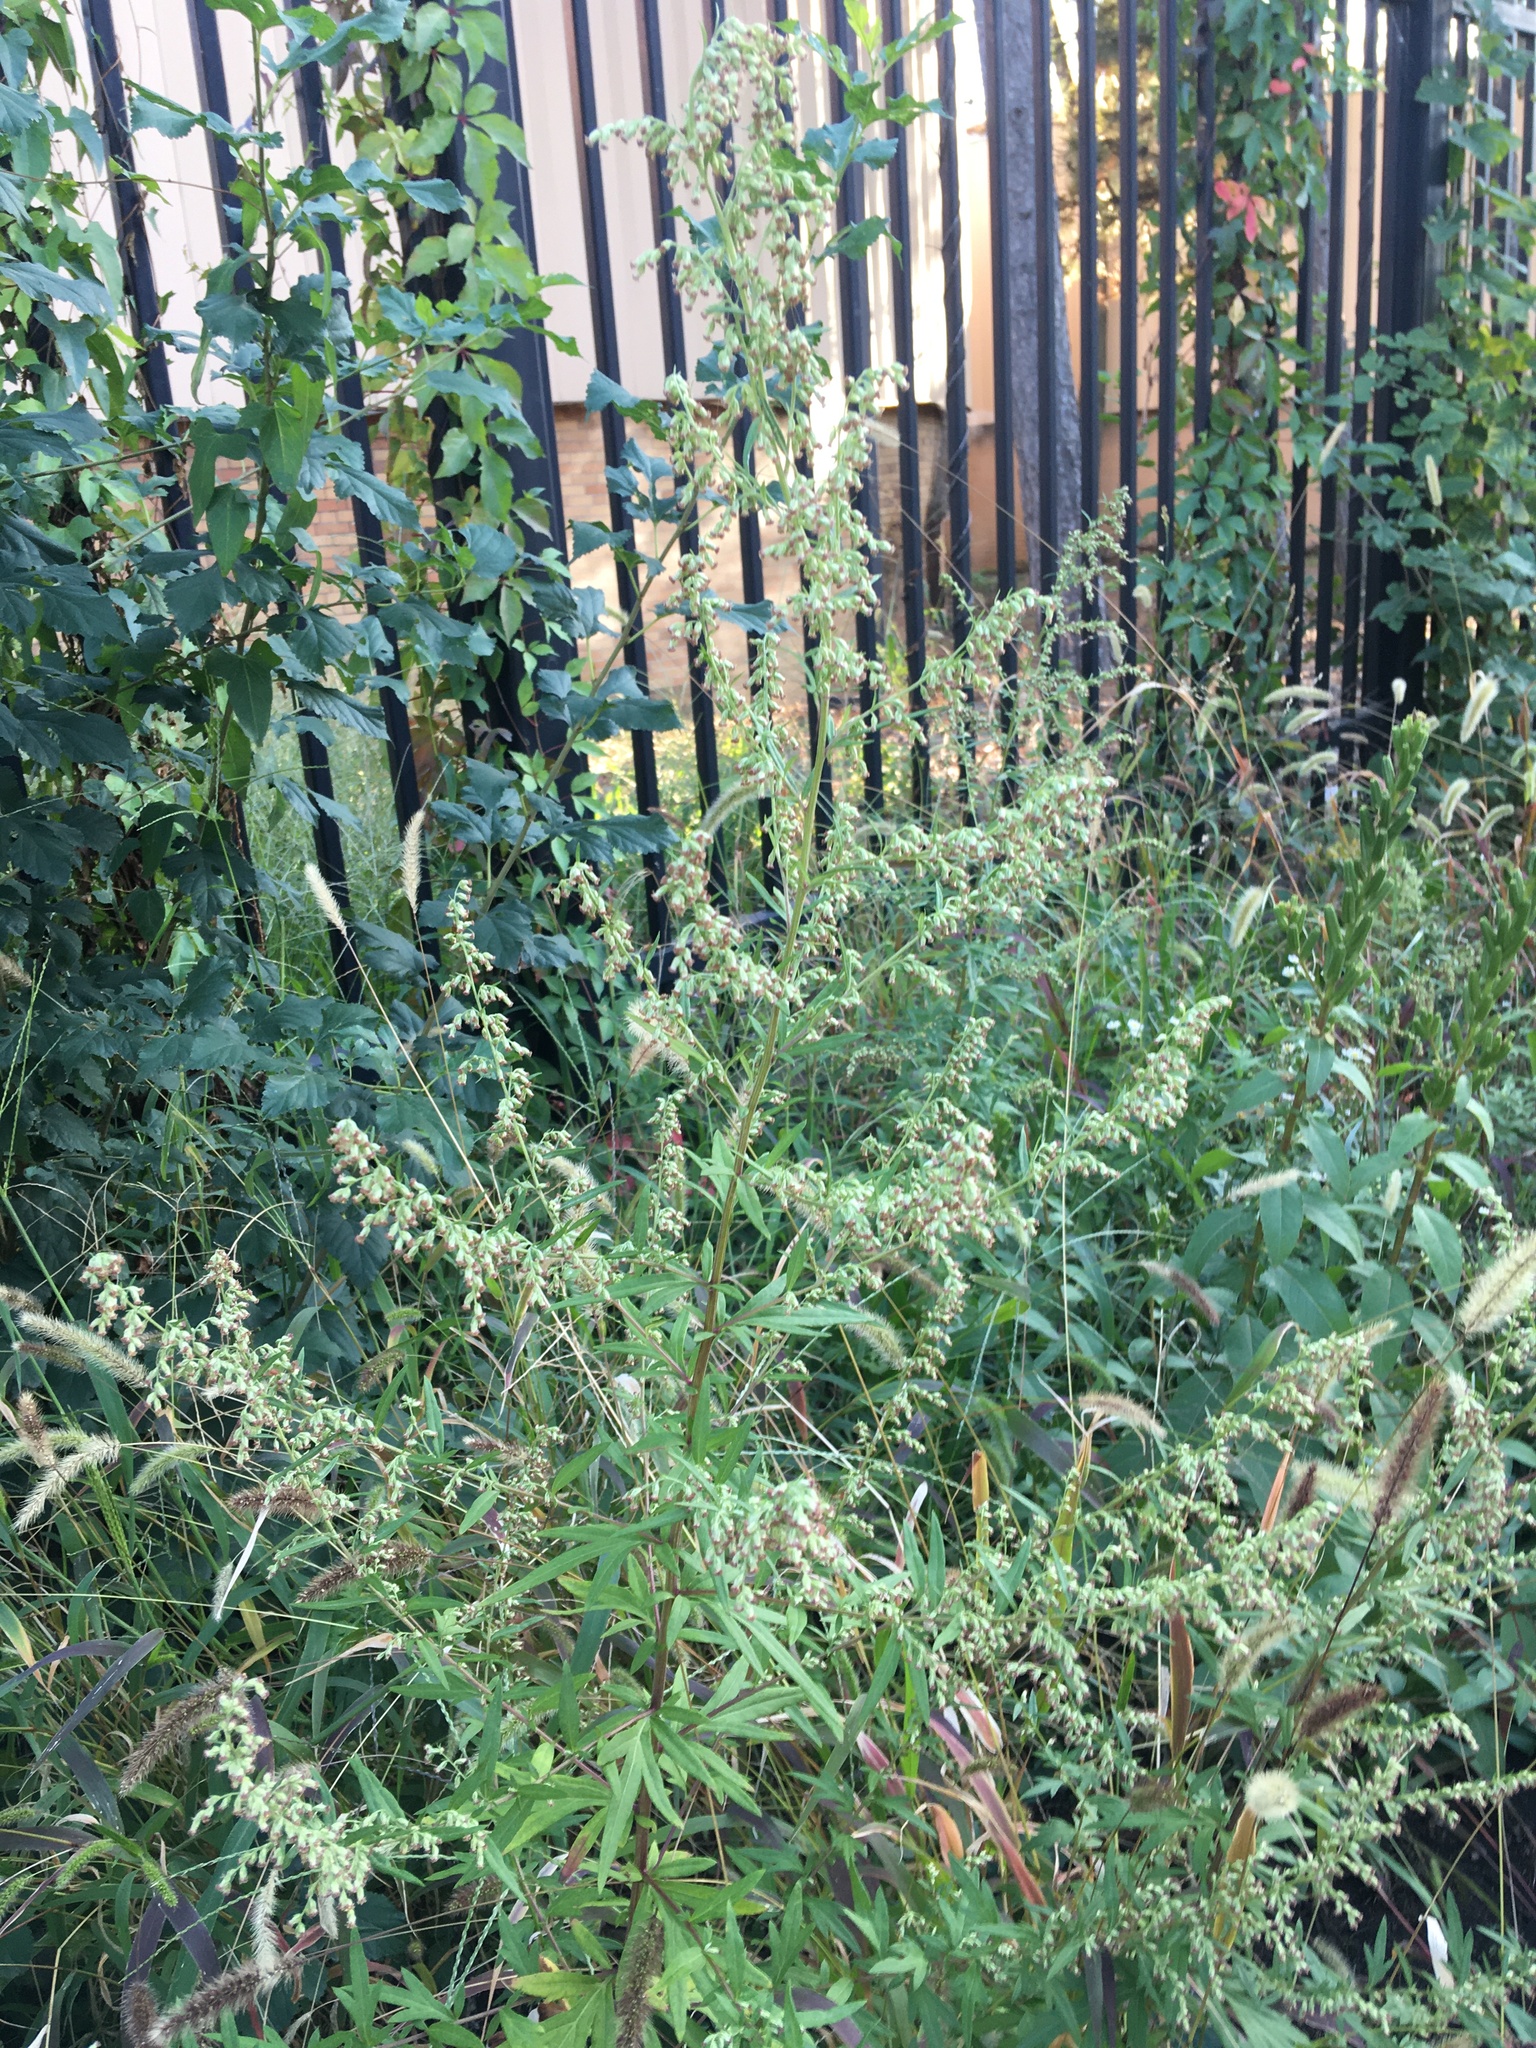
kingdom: Plantae
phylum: Tracheophyta
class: Magnoliopsida
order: Asterales
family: Asteraceae
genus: Artemisia
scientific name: Artemisia vulgaris
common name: Mugwort
